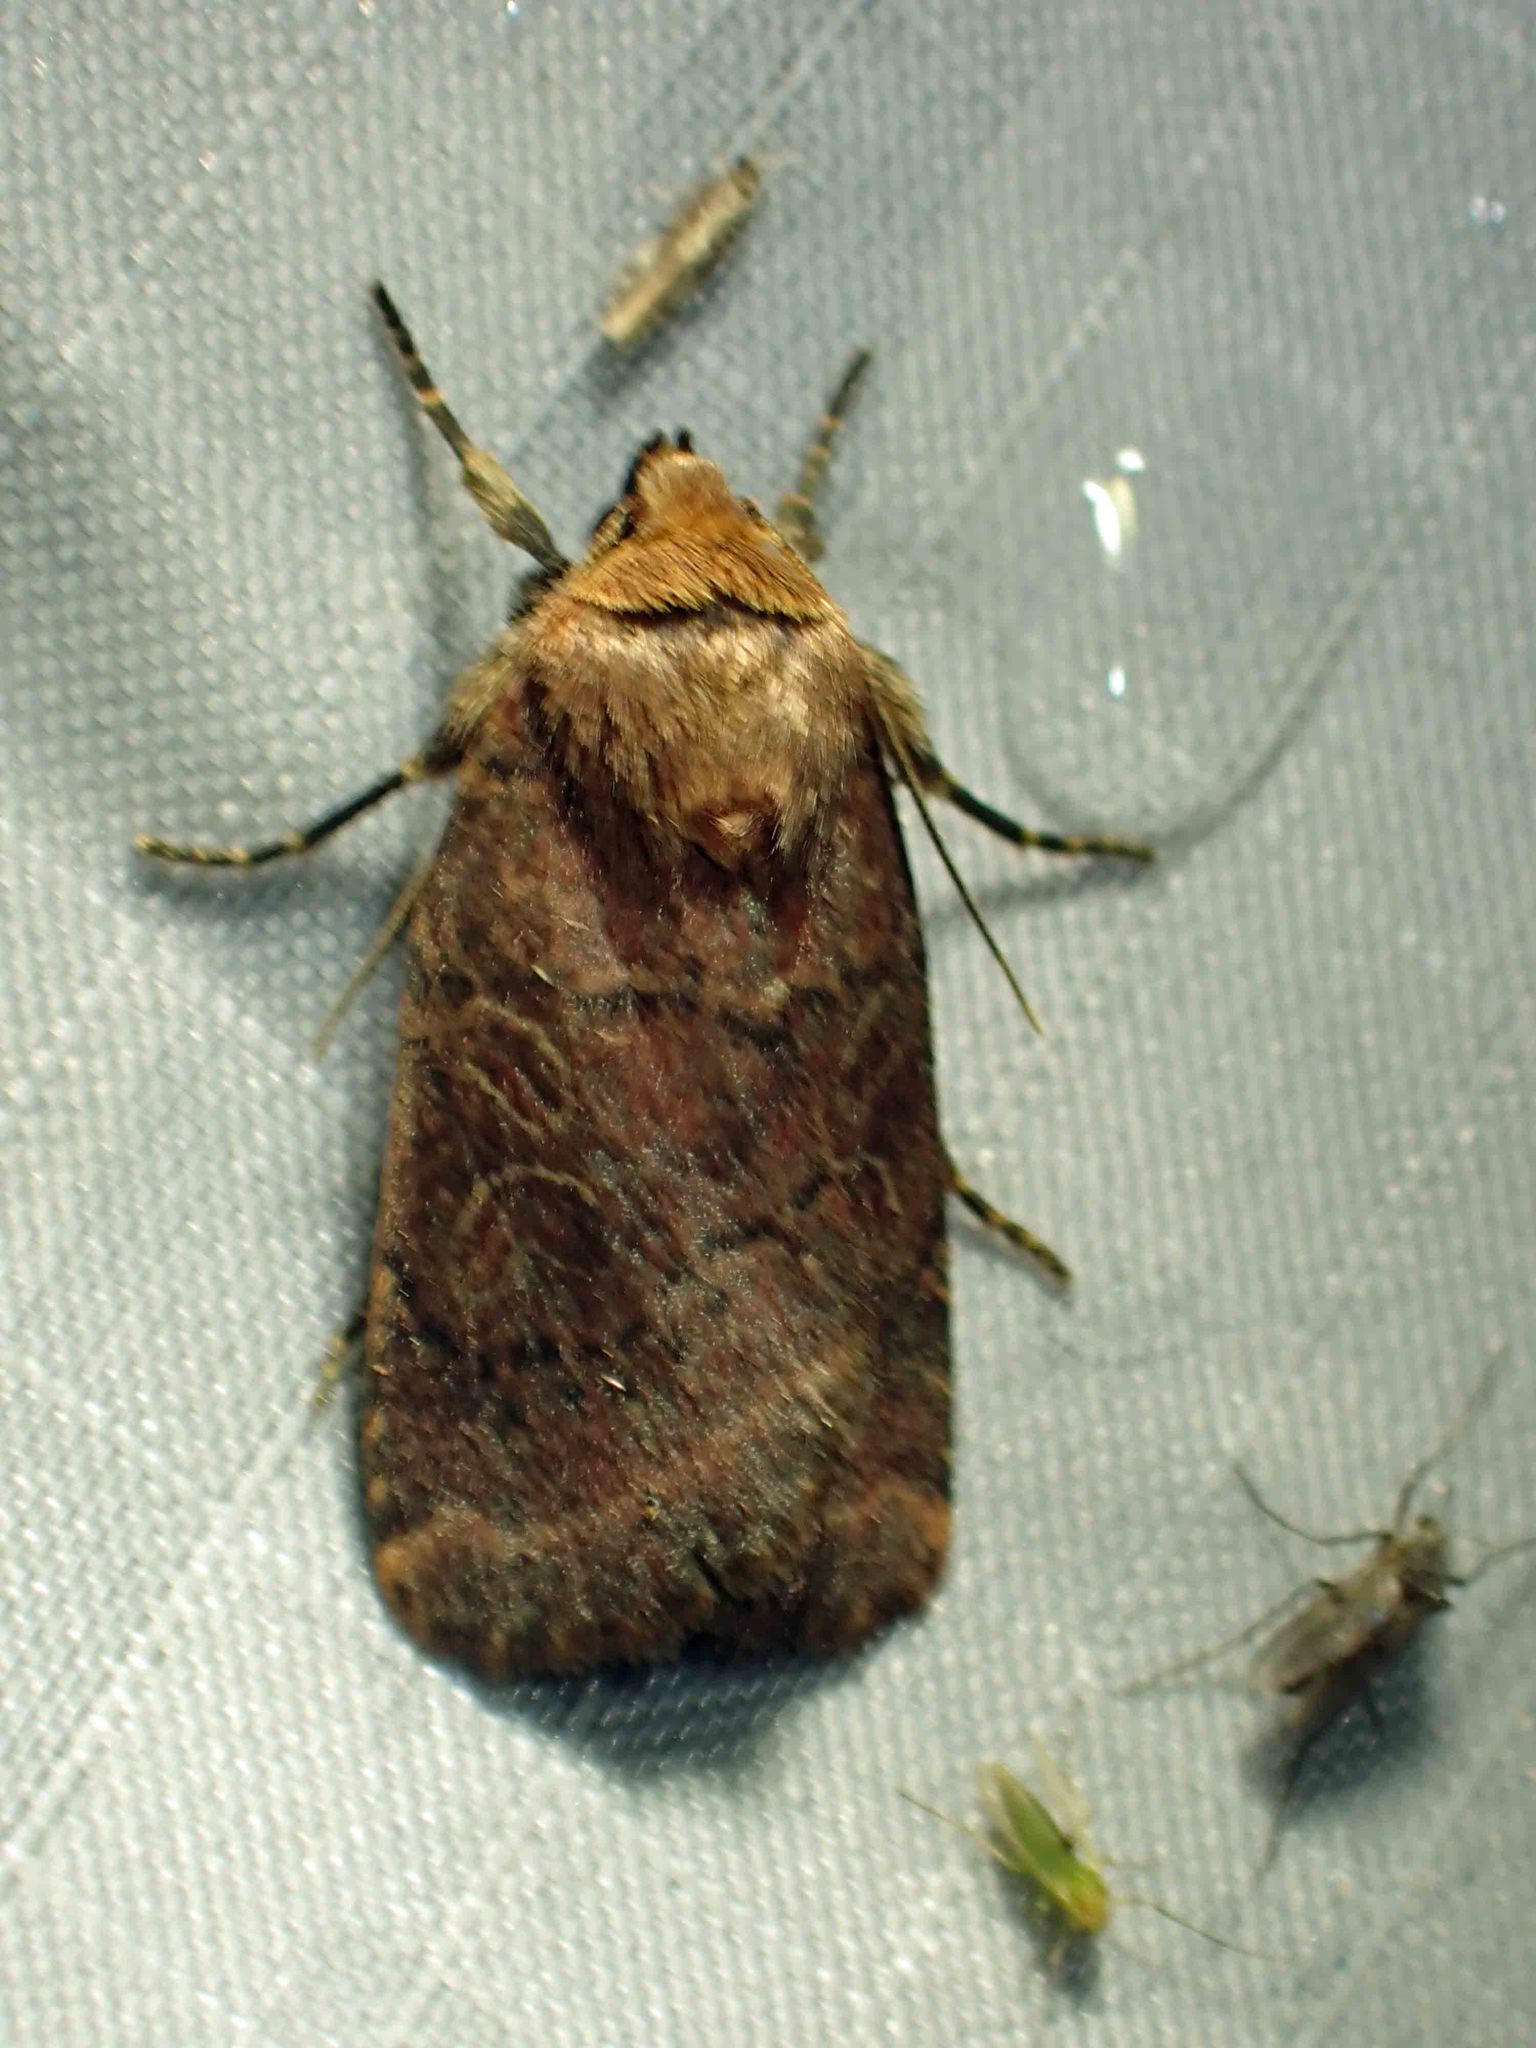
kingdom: Animalia
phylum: Arthropoda
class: Insecta
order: Lepidoptera
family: Noctuidae
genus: Orthodes
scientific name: Orthodes cynica
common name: Cynical quaker
